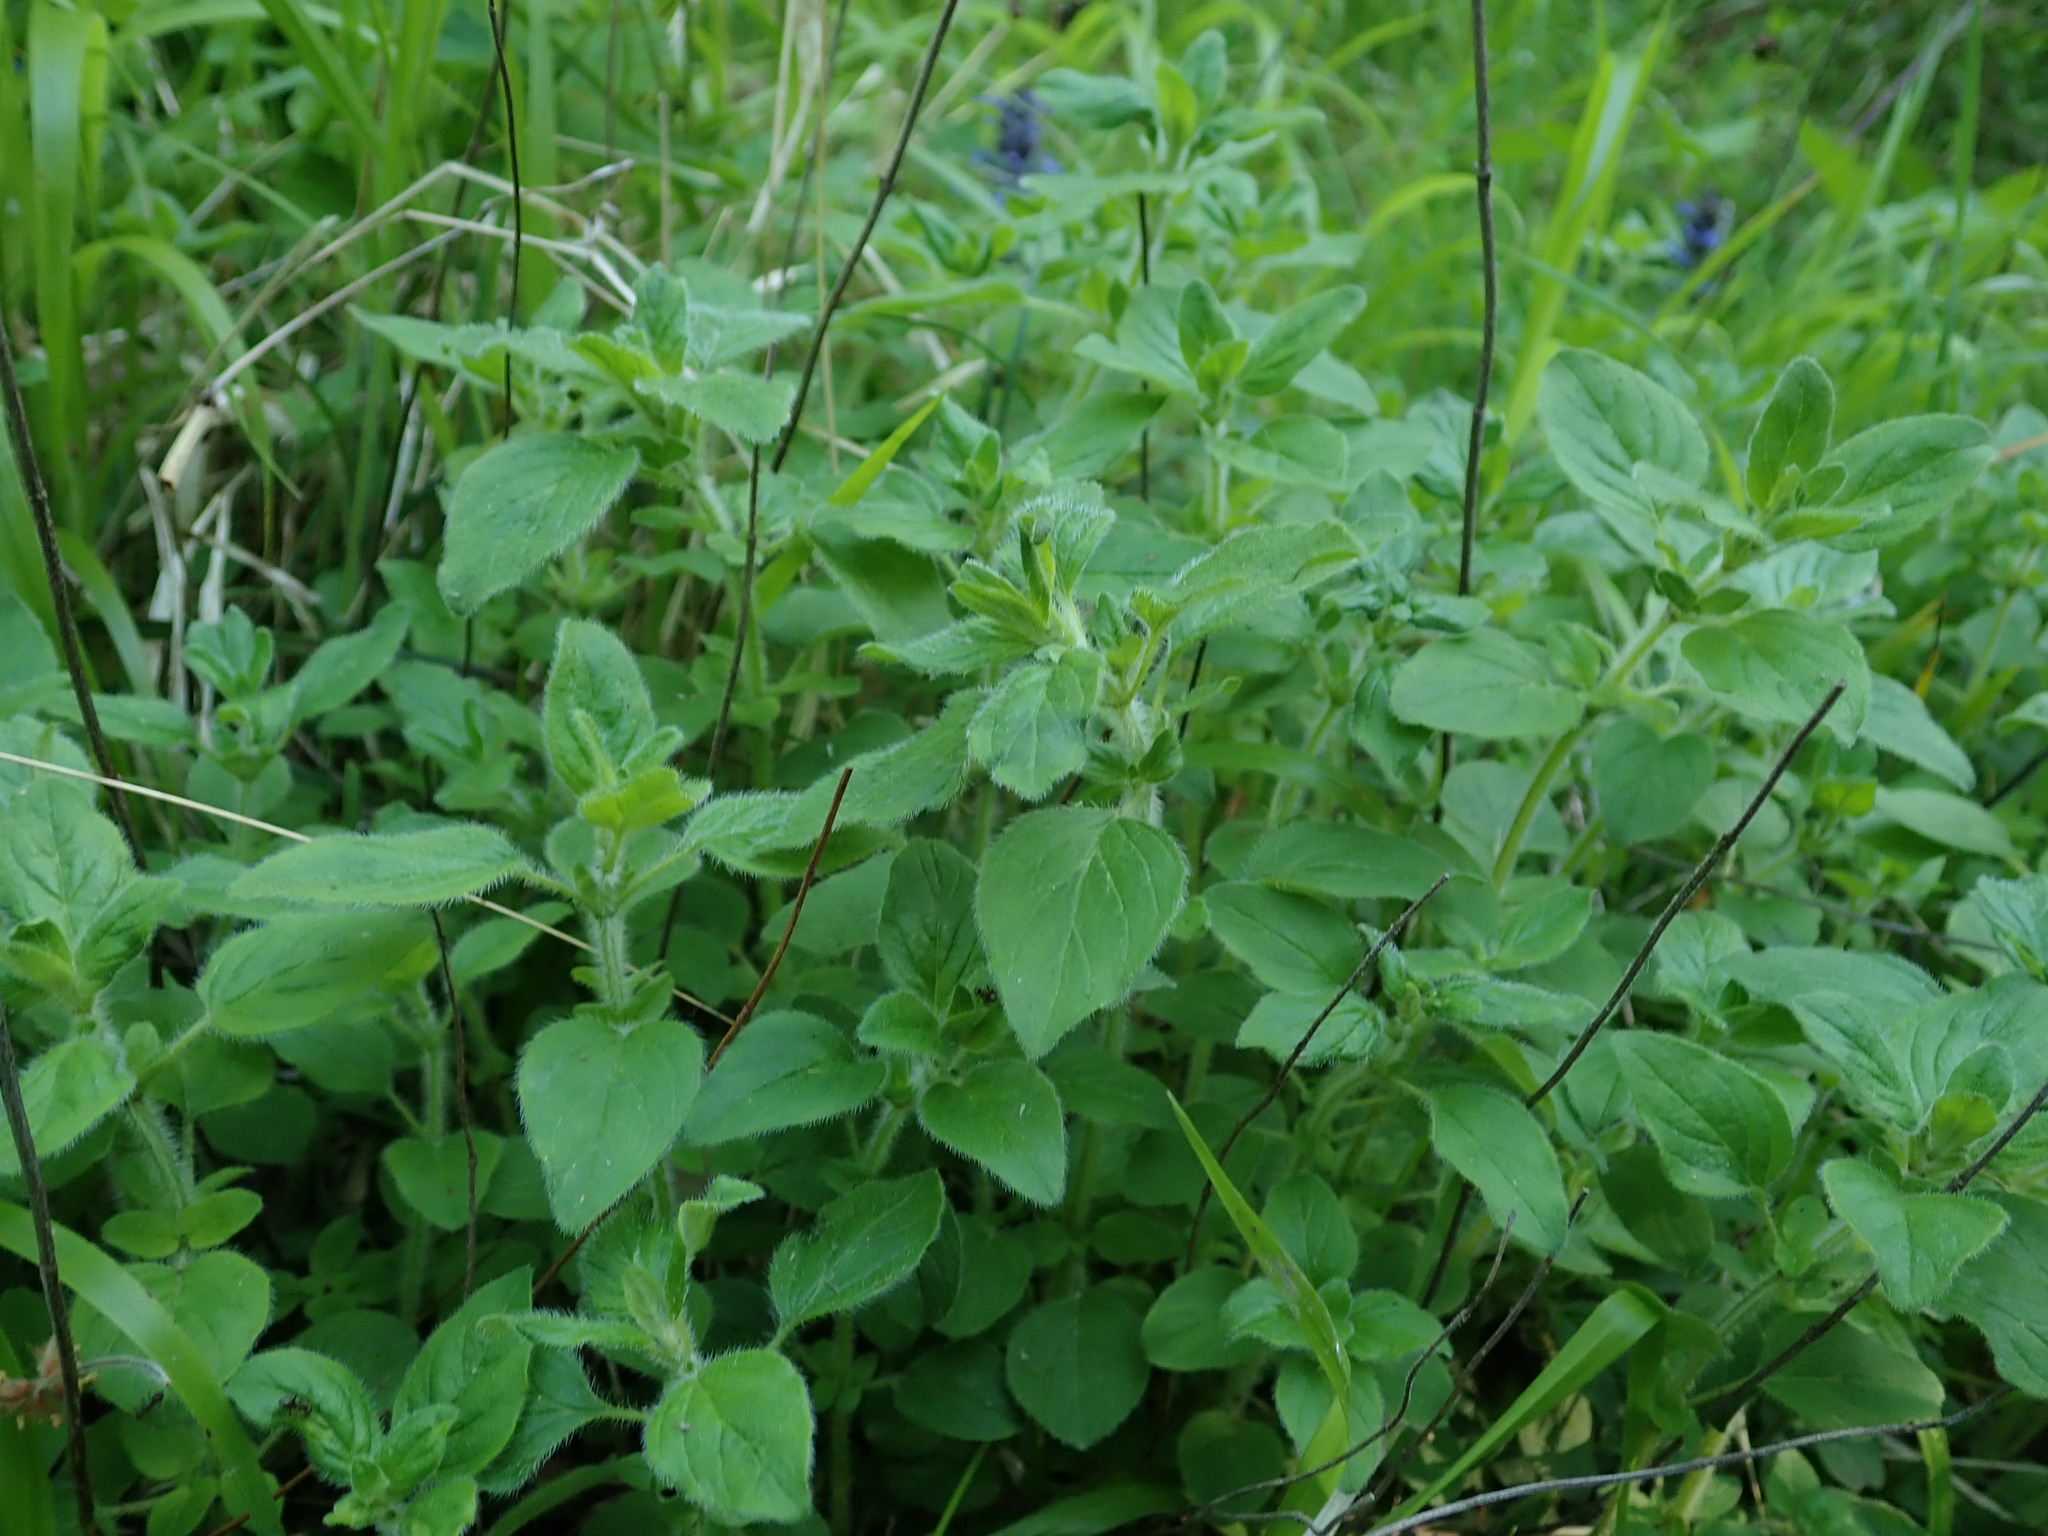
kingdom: Plantae
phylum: Tracheophyta
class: Magnoliopsida
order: Lamiales
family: Lamiaceae
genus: Origanum
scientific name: Origanum vulgare
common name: Wild marjoram
